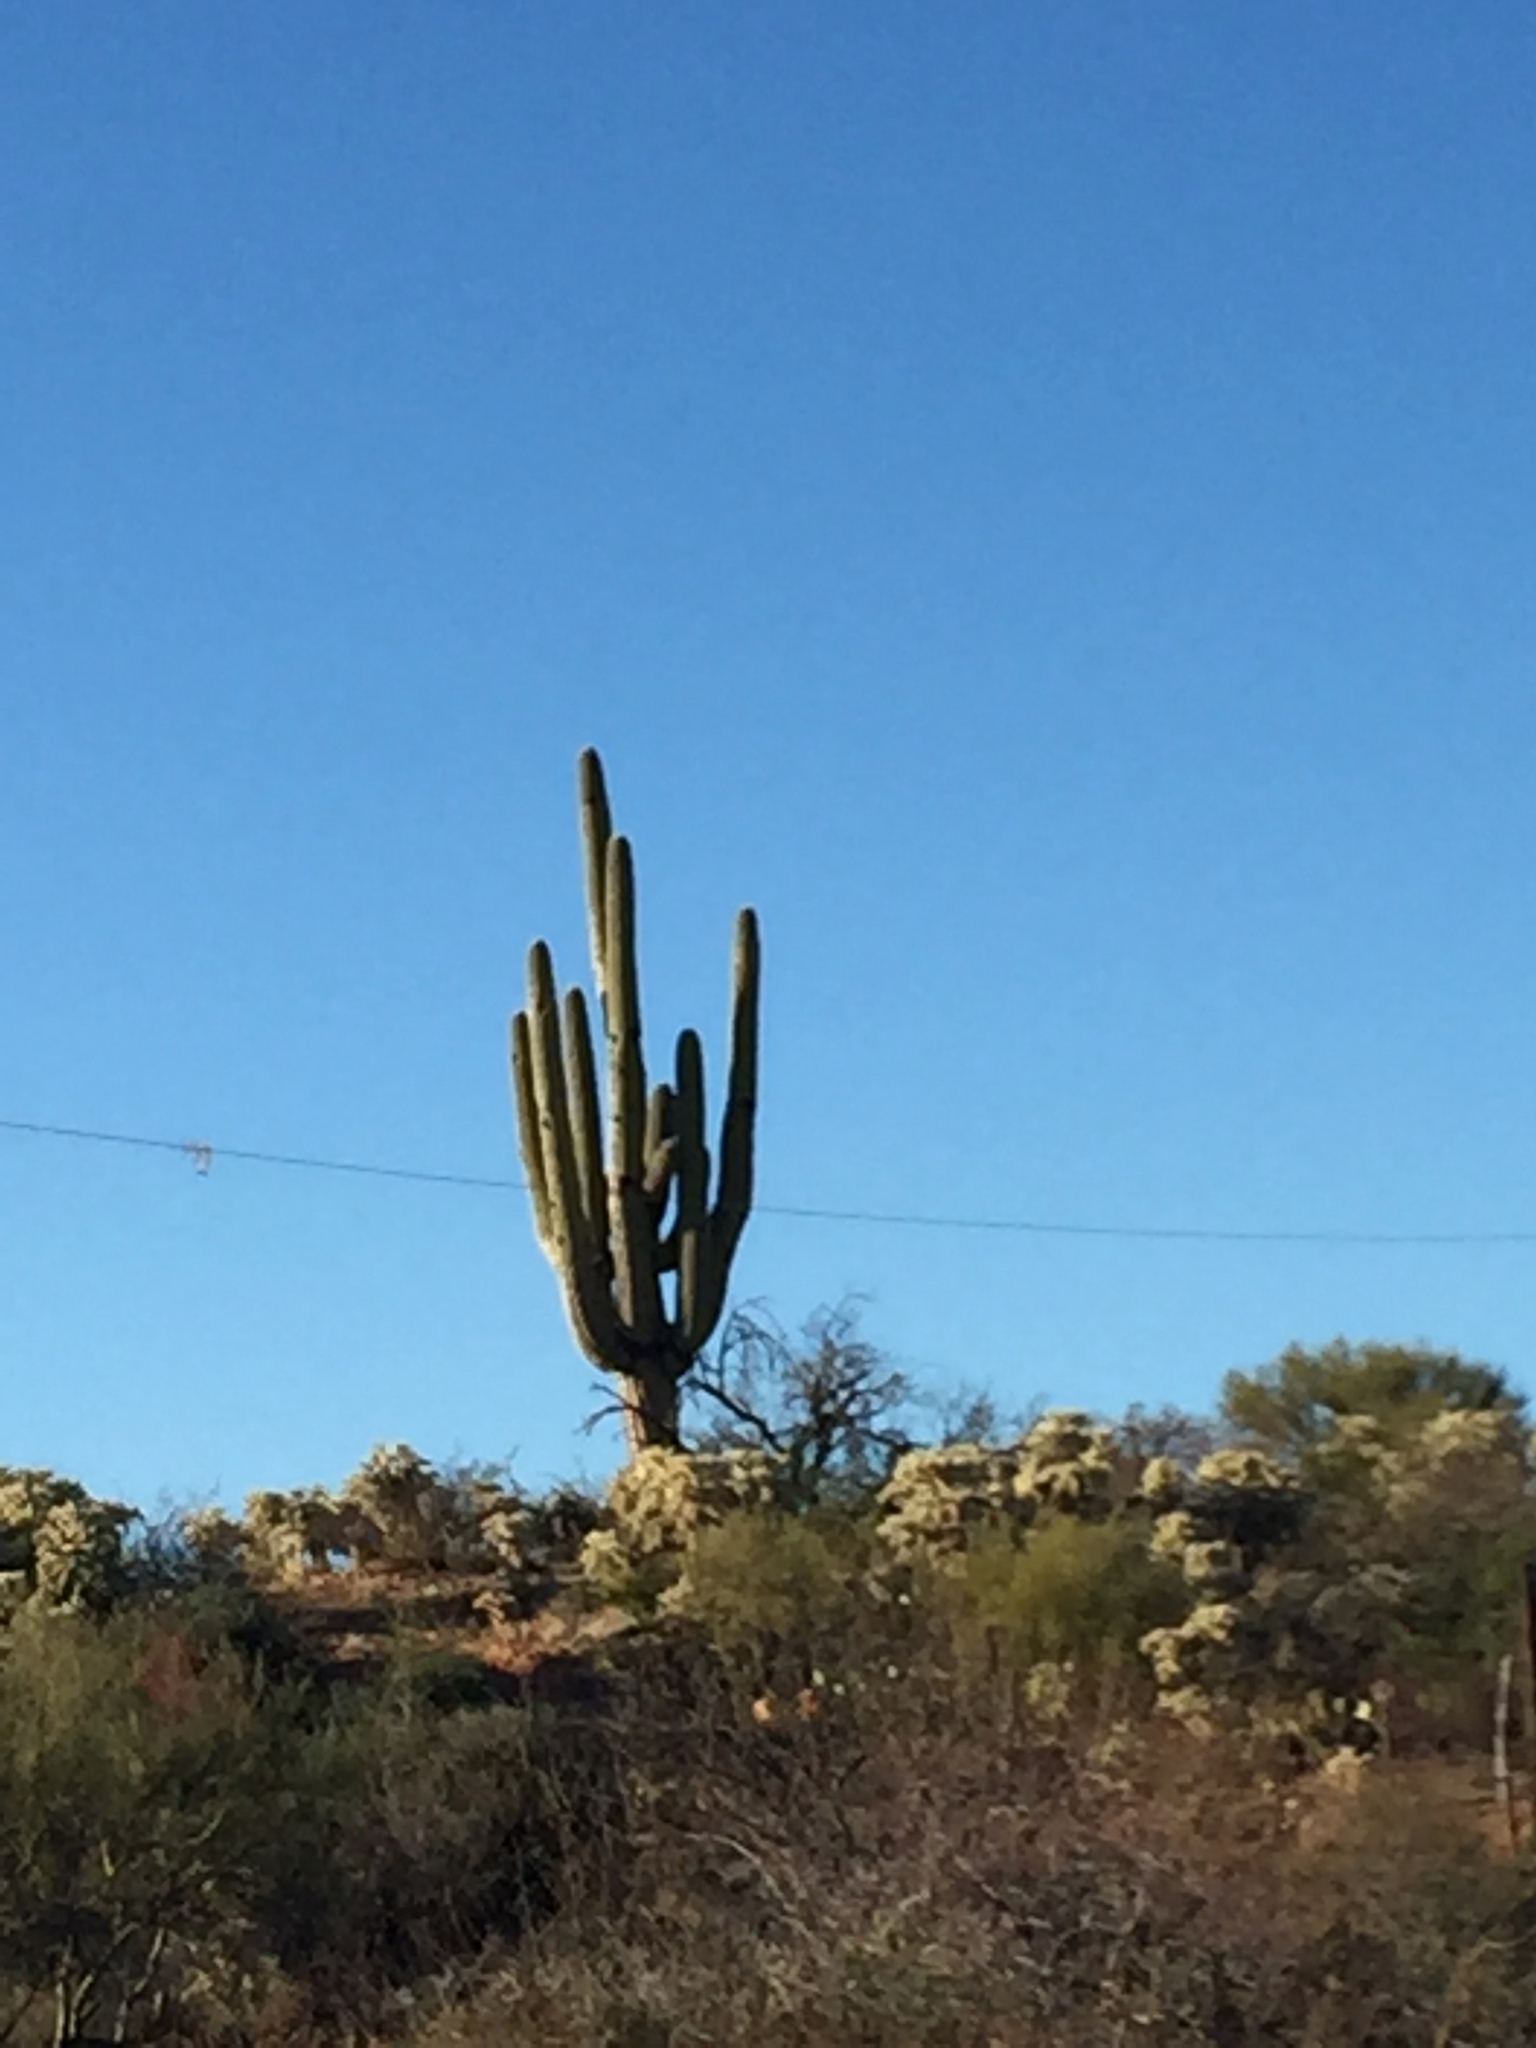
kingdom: Plantae
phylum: Tracheophyta
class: Magnoliopsida
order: Caryophyllales
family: Cactaceae
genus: Carnegiea
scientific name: Carnegiea gigantea
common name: Saguaro
